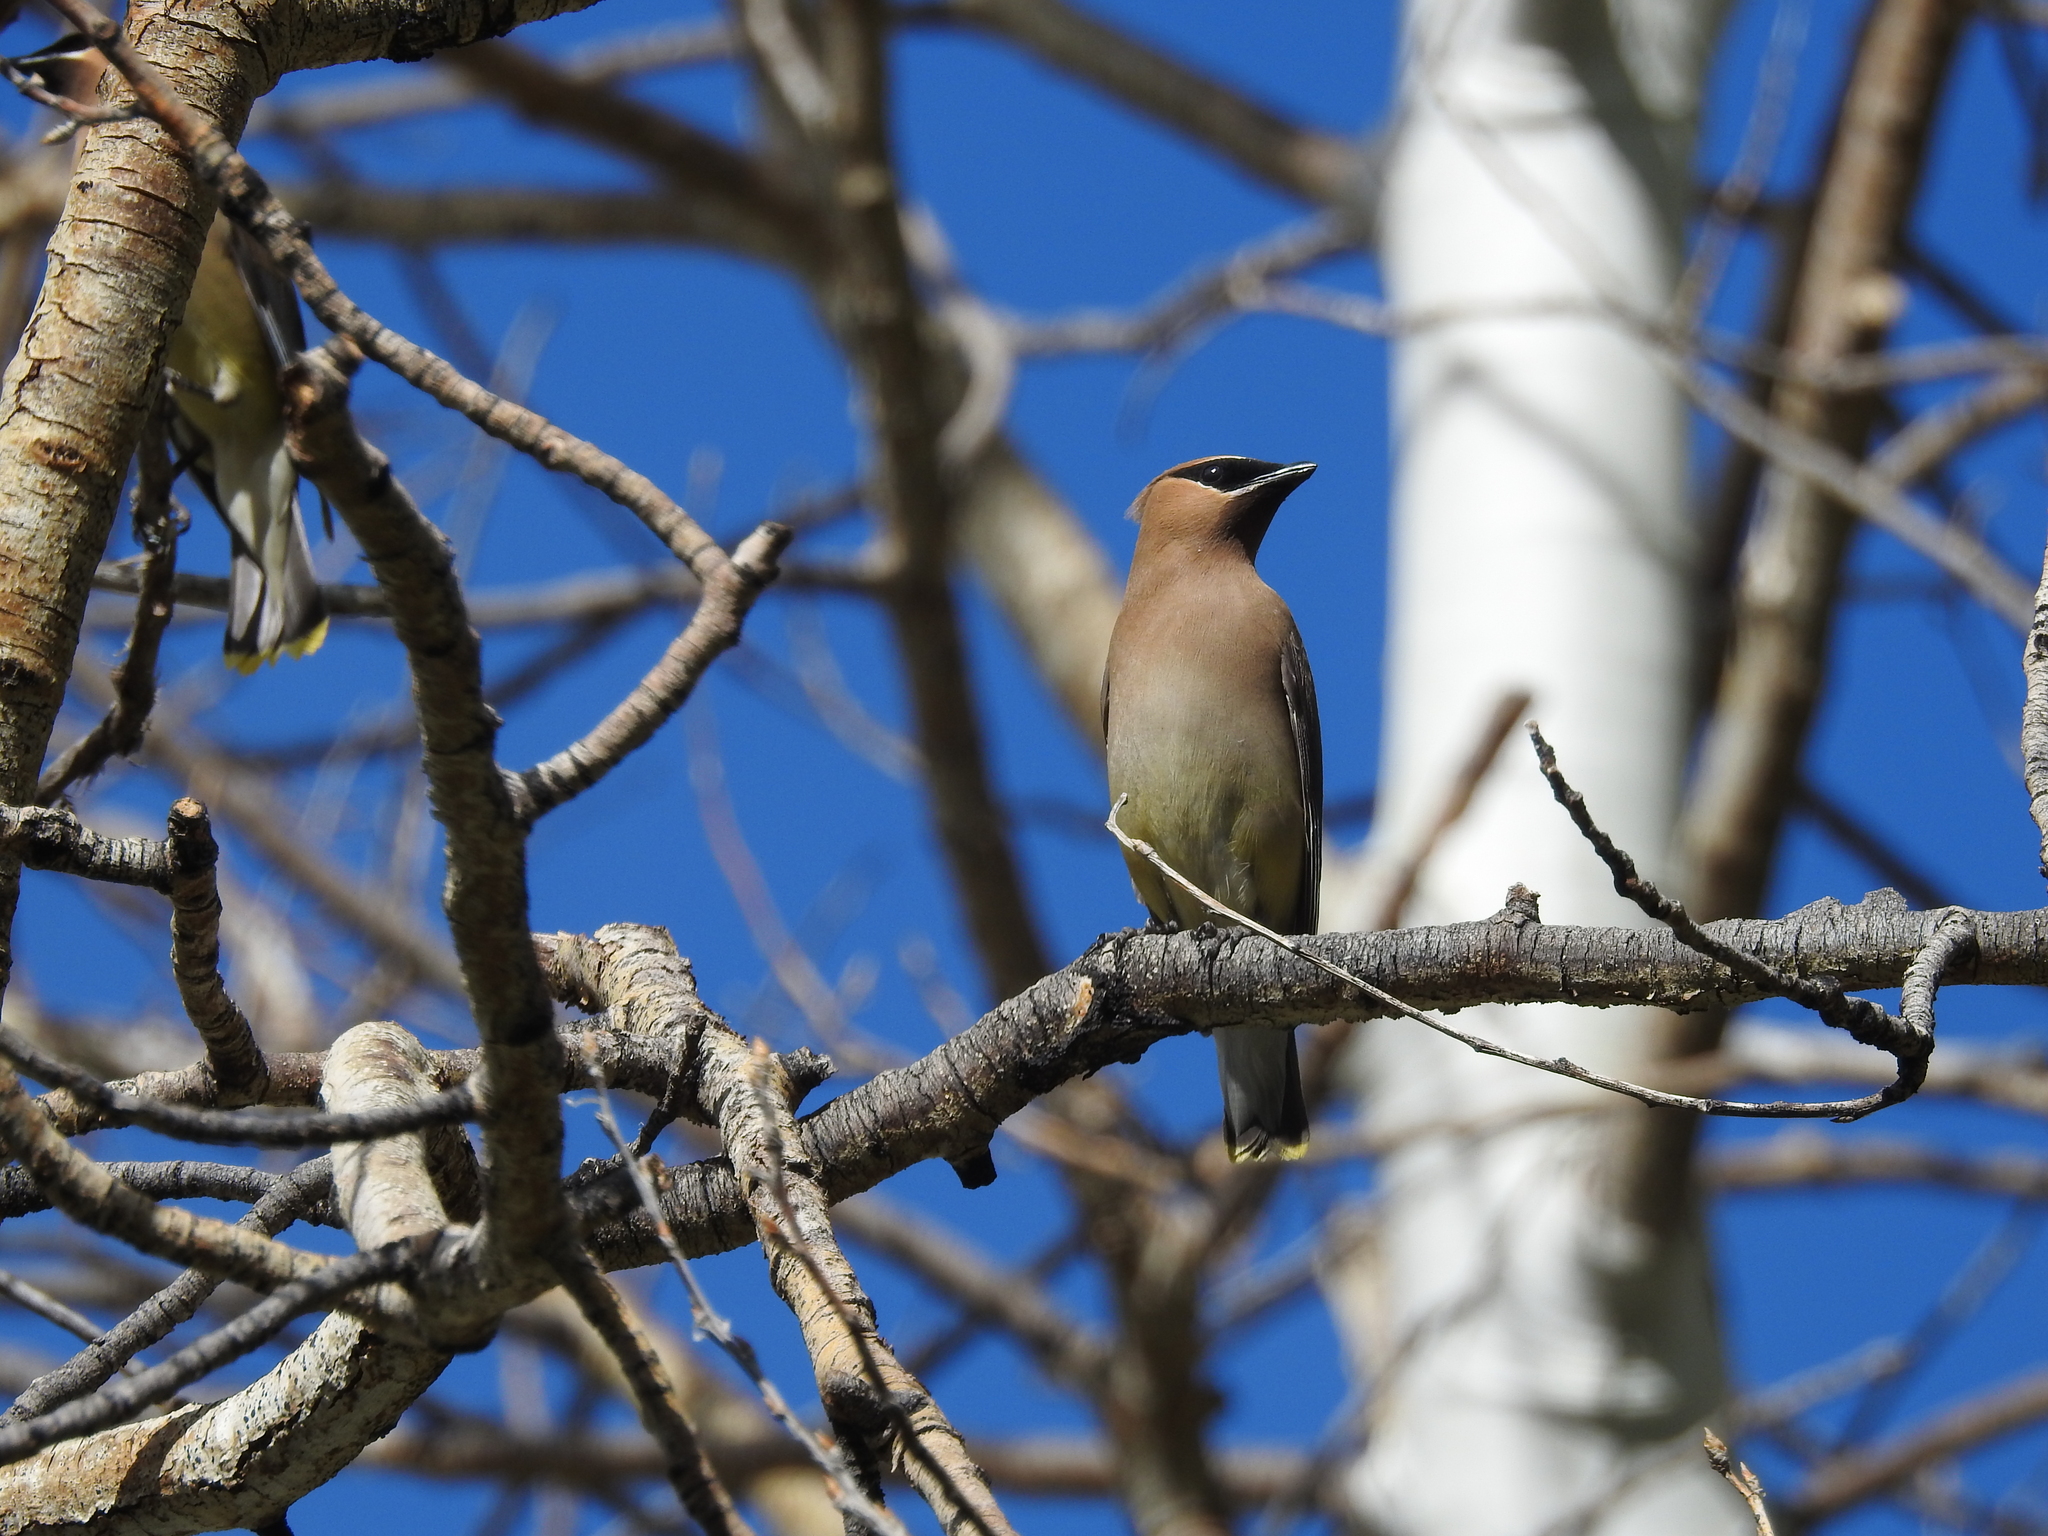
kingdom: Animalia
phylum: Chordata
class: Aves
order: Passeriformes
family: Bombycillidae
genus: Bombycilla
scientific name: Bombycilla cedrorum
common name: Cedar waxwing
